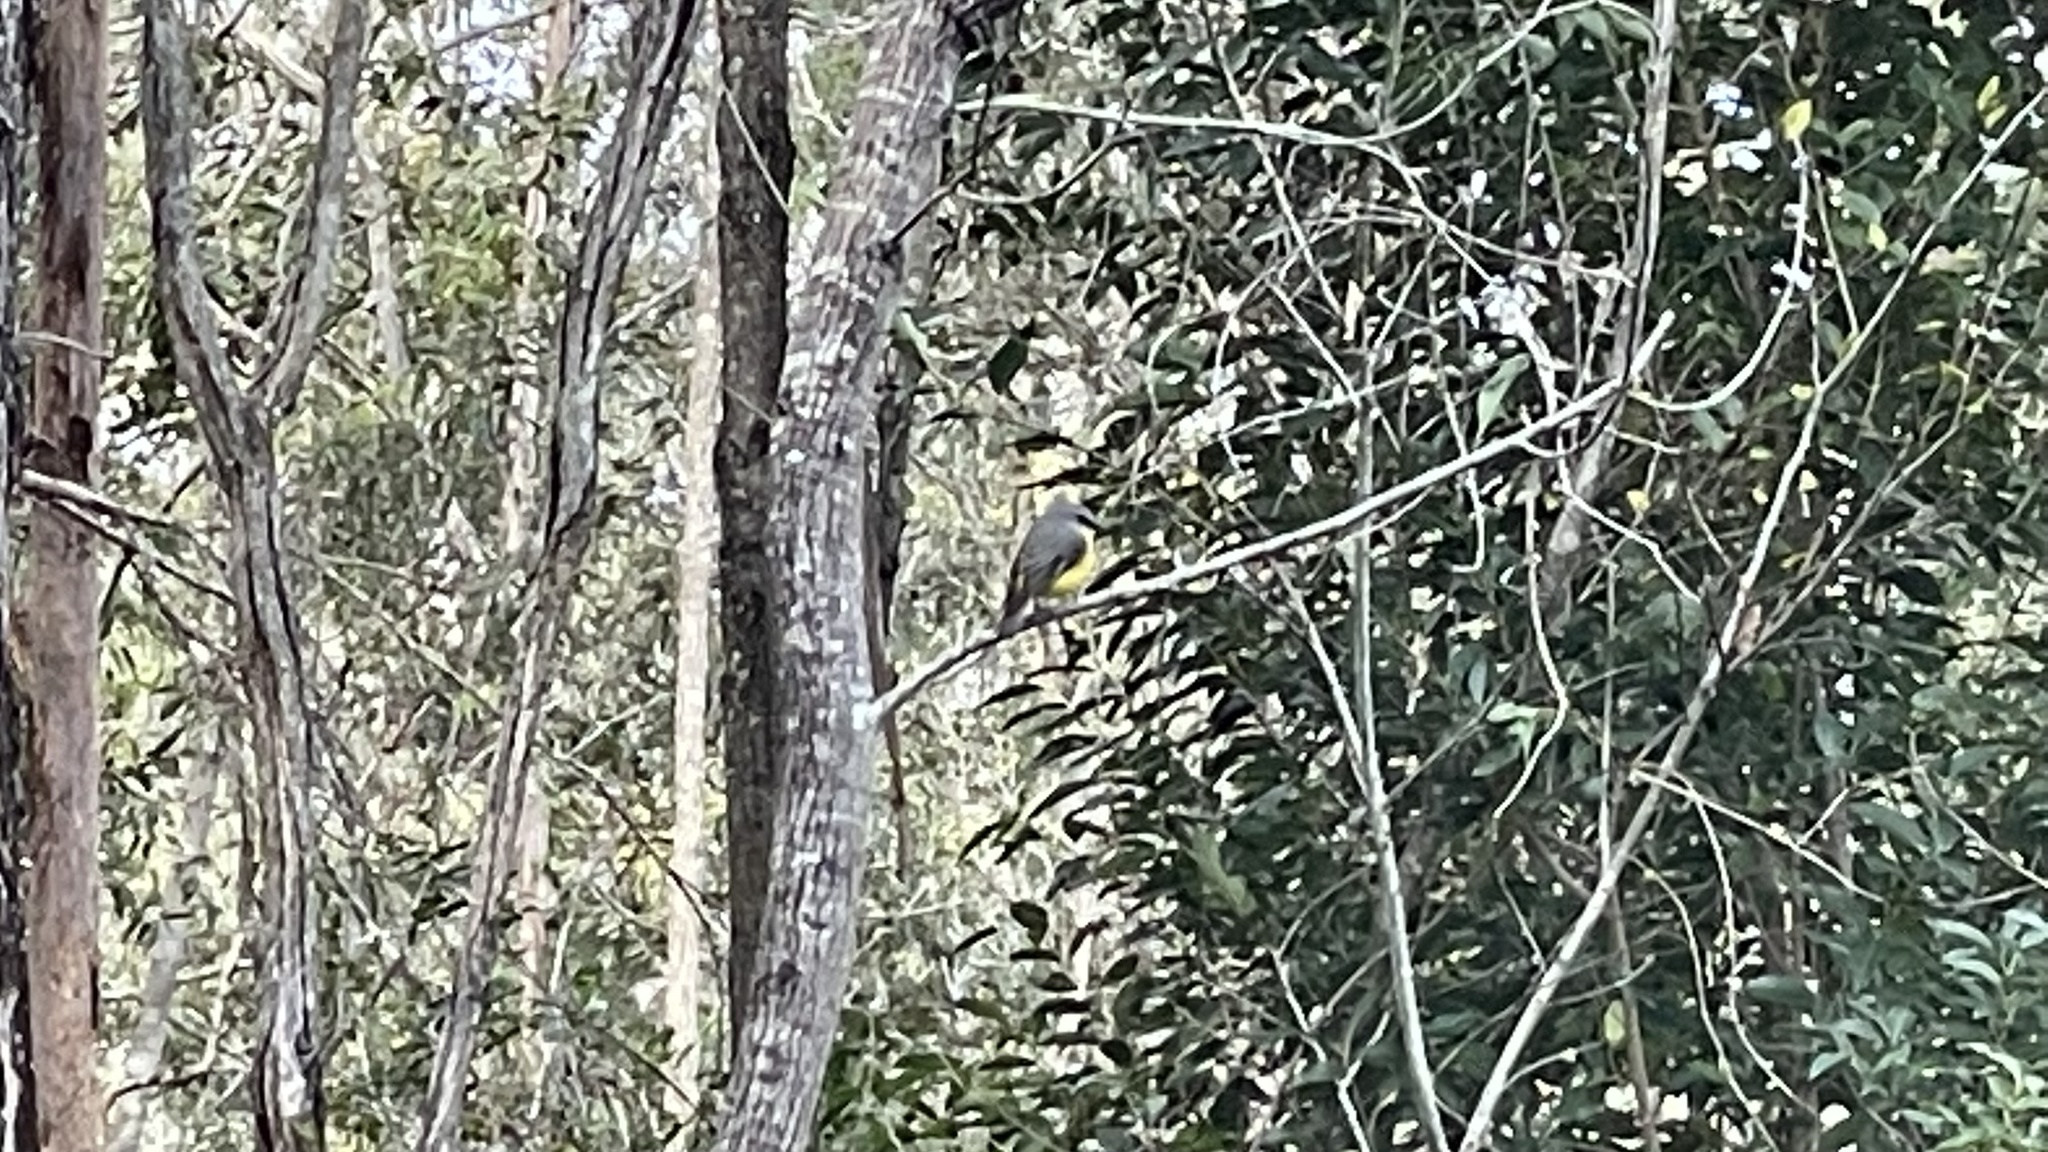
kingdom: Animalia
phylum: Chordata
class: Aves
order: Passeriformes
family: Petroicidae
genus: Eopsaltria
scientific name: Eopsaltria australis
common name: Eastern yellow robin
